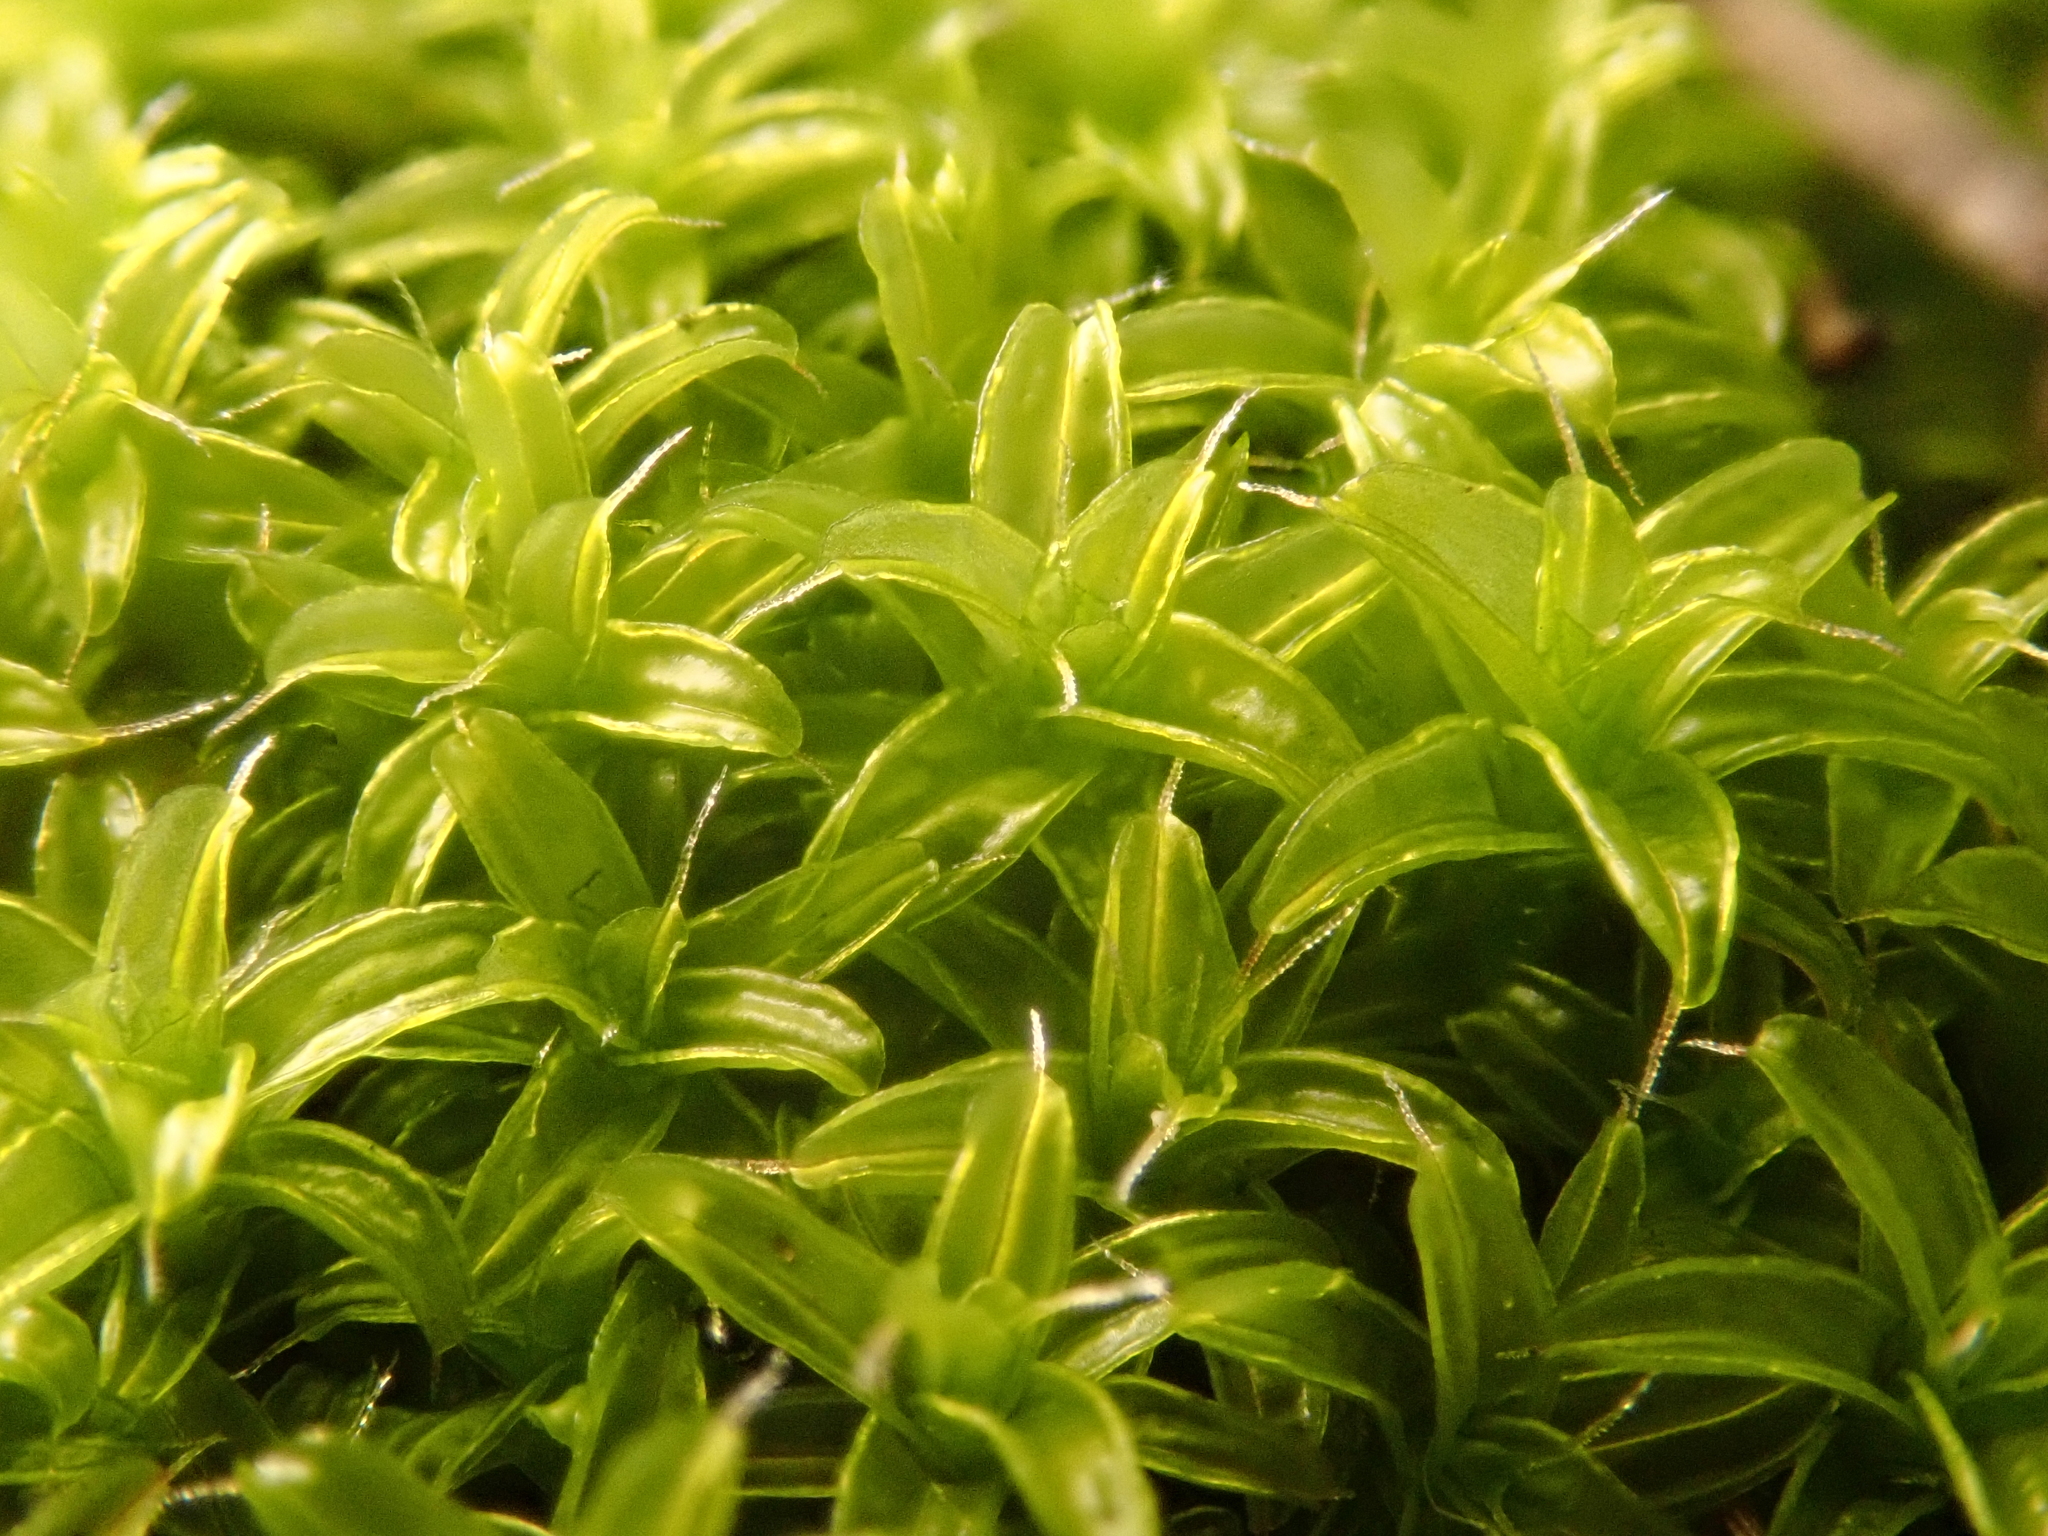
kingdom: Plantae
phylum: Bryophyta
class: Bryopsida
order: Pottiales
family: Pottiaceae
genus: Syntrichia
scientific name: Syntrichia ruralis
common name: Sidewalk screw moss
